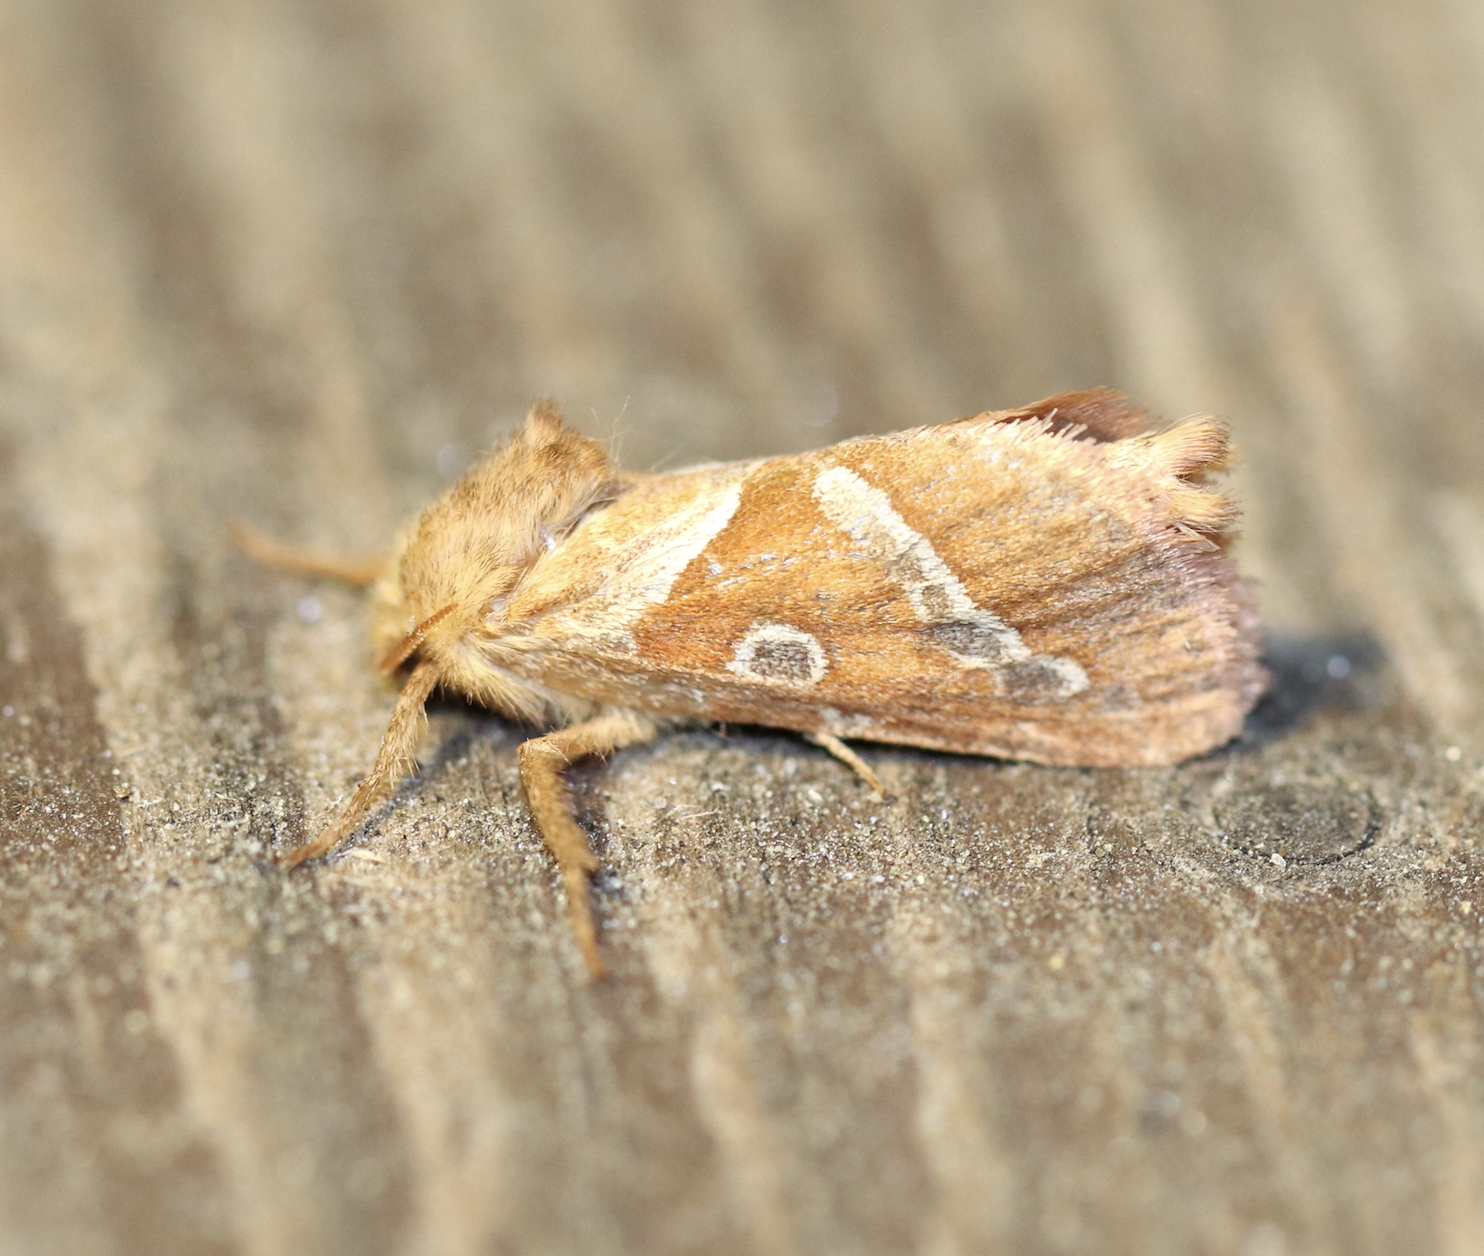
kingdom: Animalia
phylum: Arthropoda
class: Insecta
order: Lepidoptera
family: Hepialidae
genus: Triodia
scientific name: Triodia sylvina
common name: Orange swift
